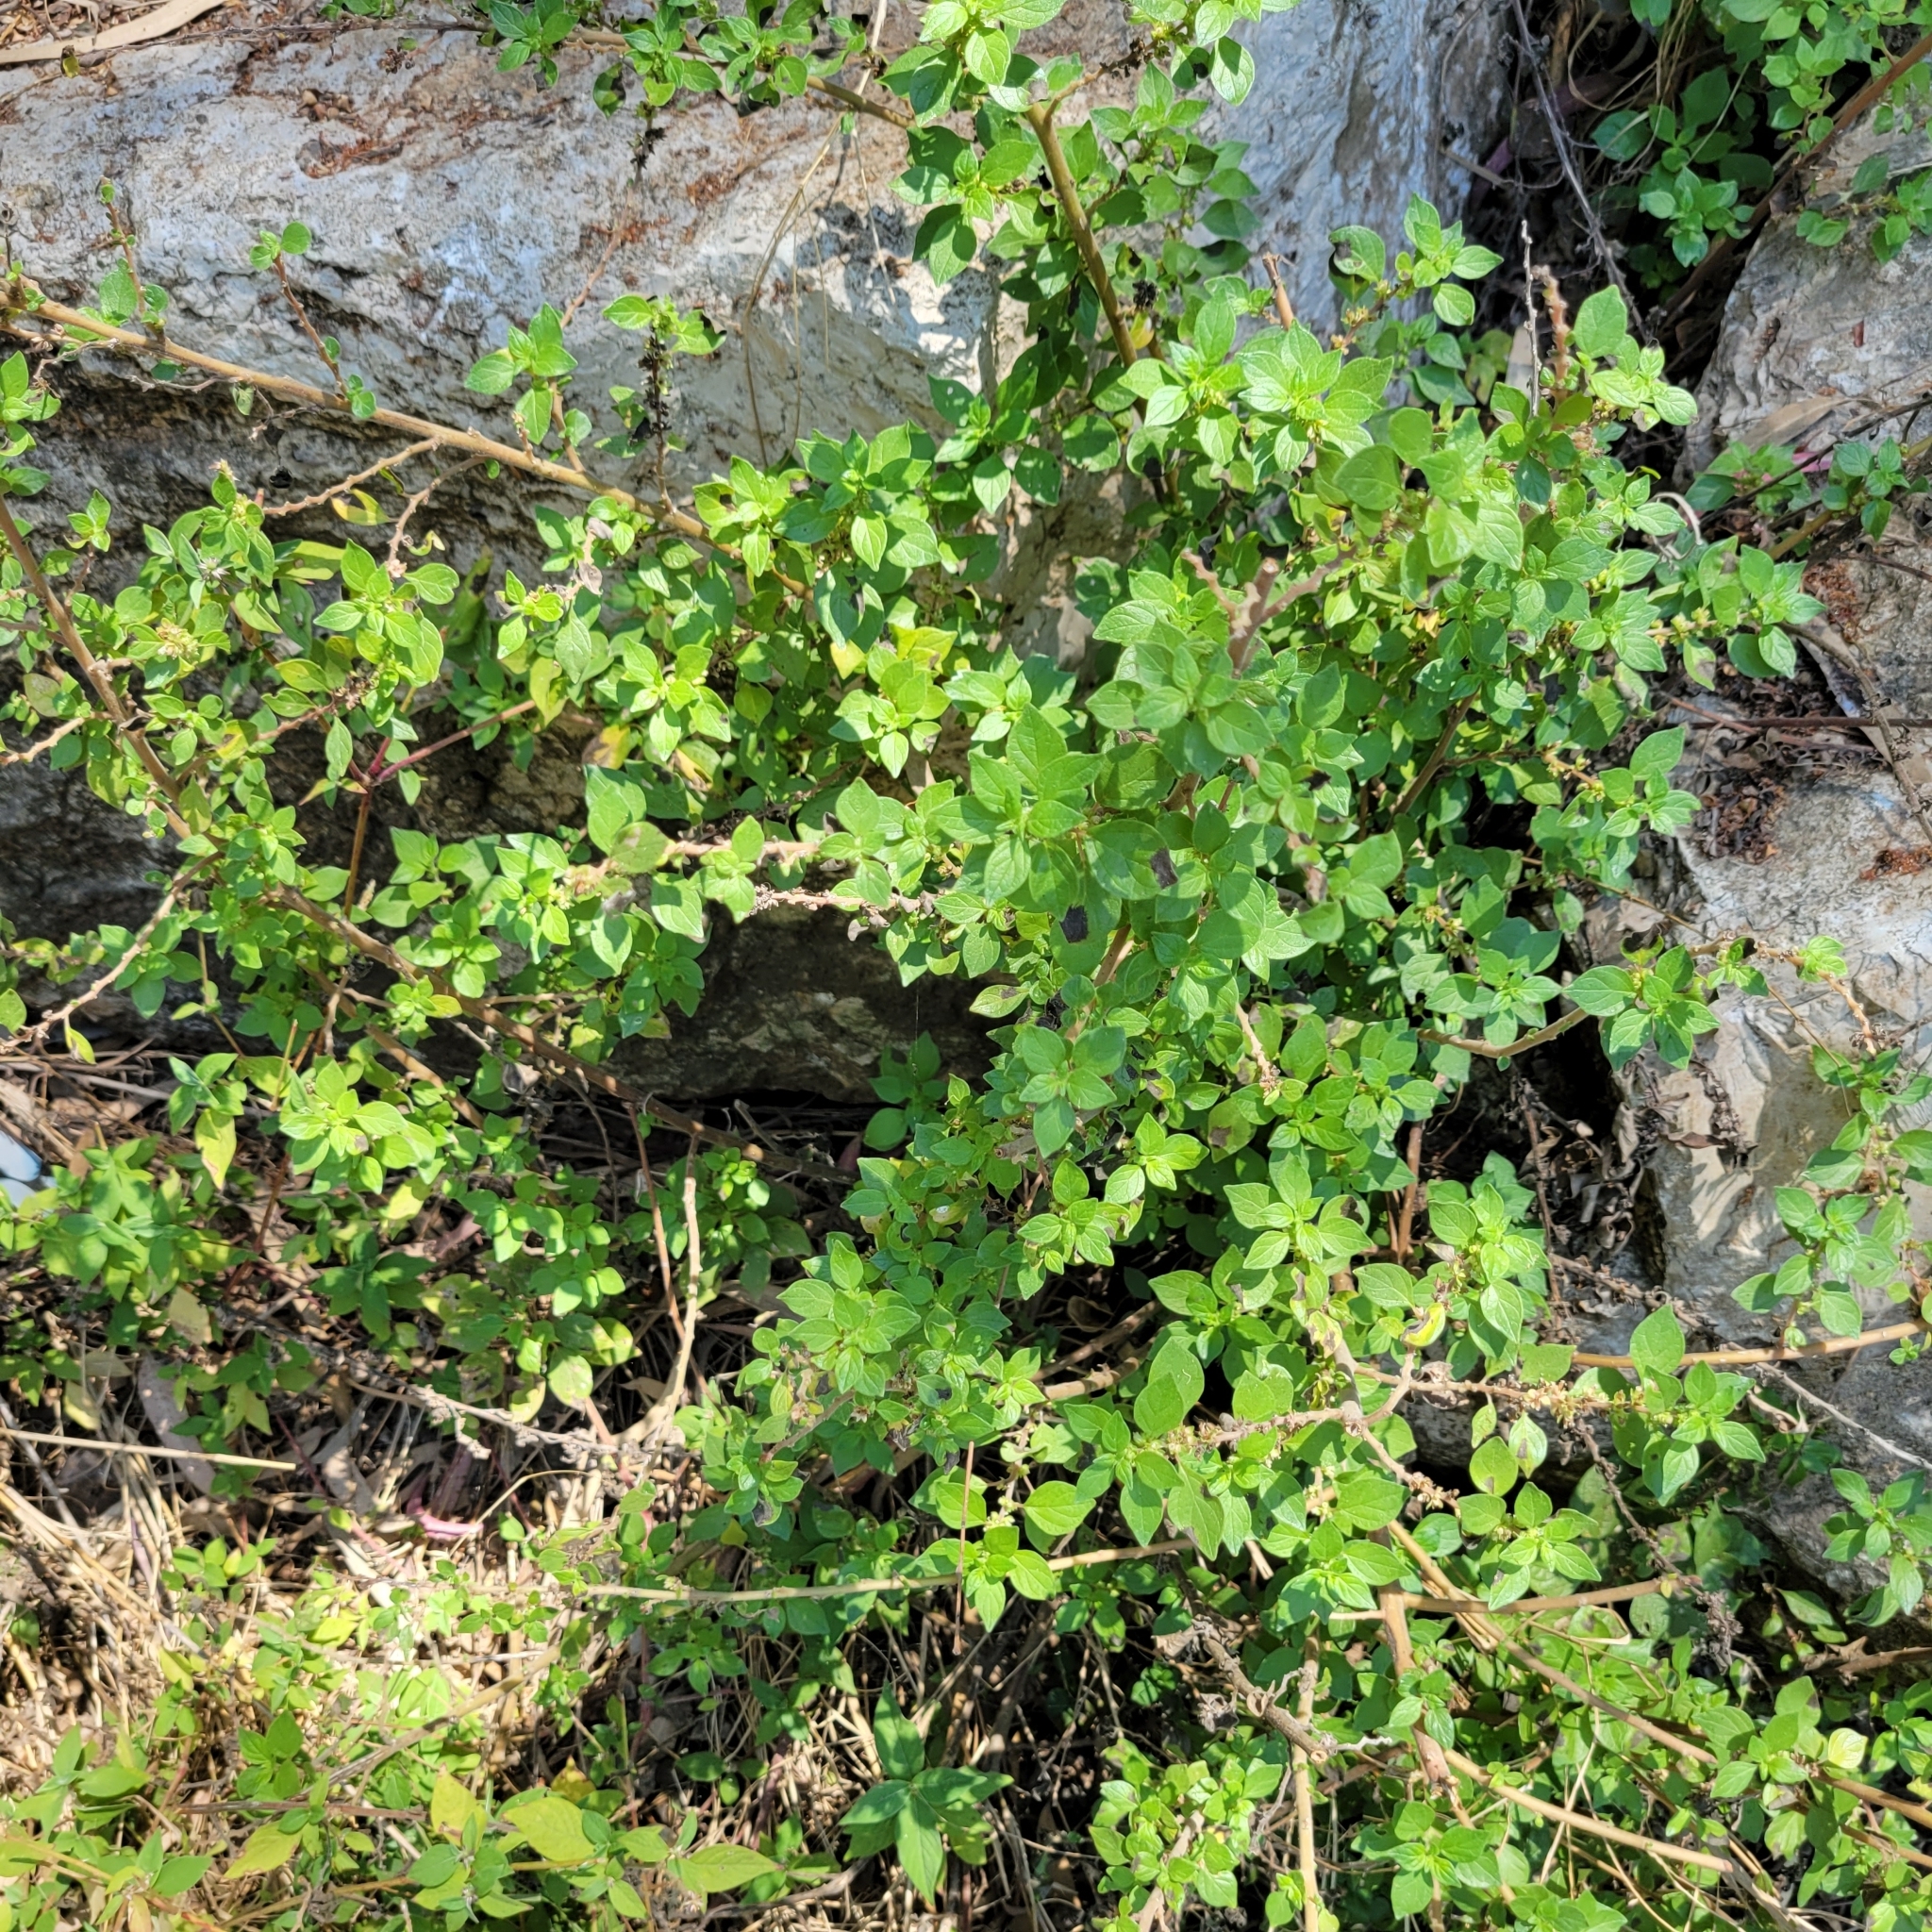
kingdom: Plantae
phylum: Tracheophyta
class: Magnoliopsida
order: Rosales
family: Urticaceae
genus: Parietaria
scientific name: Parietaria judaica
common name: Pellitory-of-the-wall
